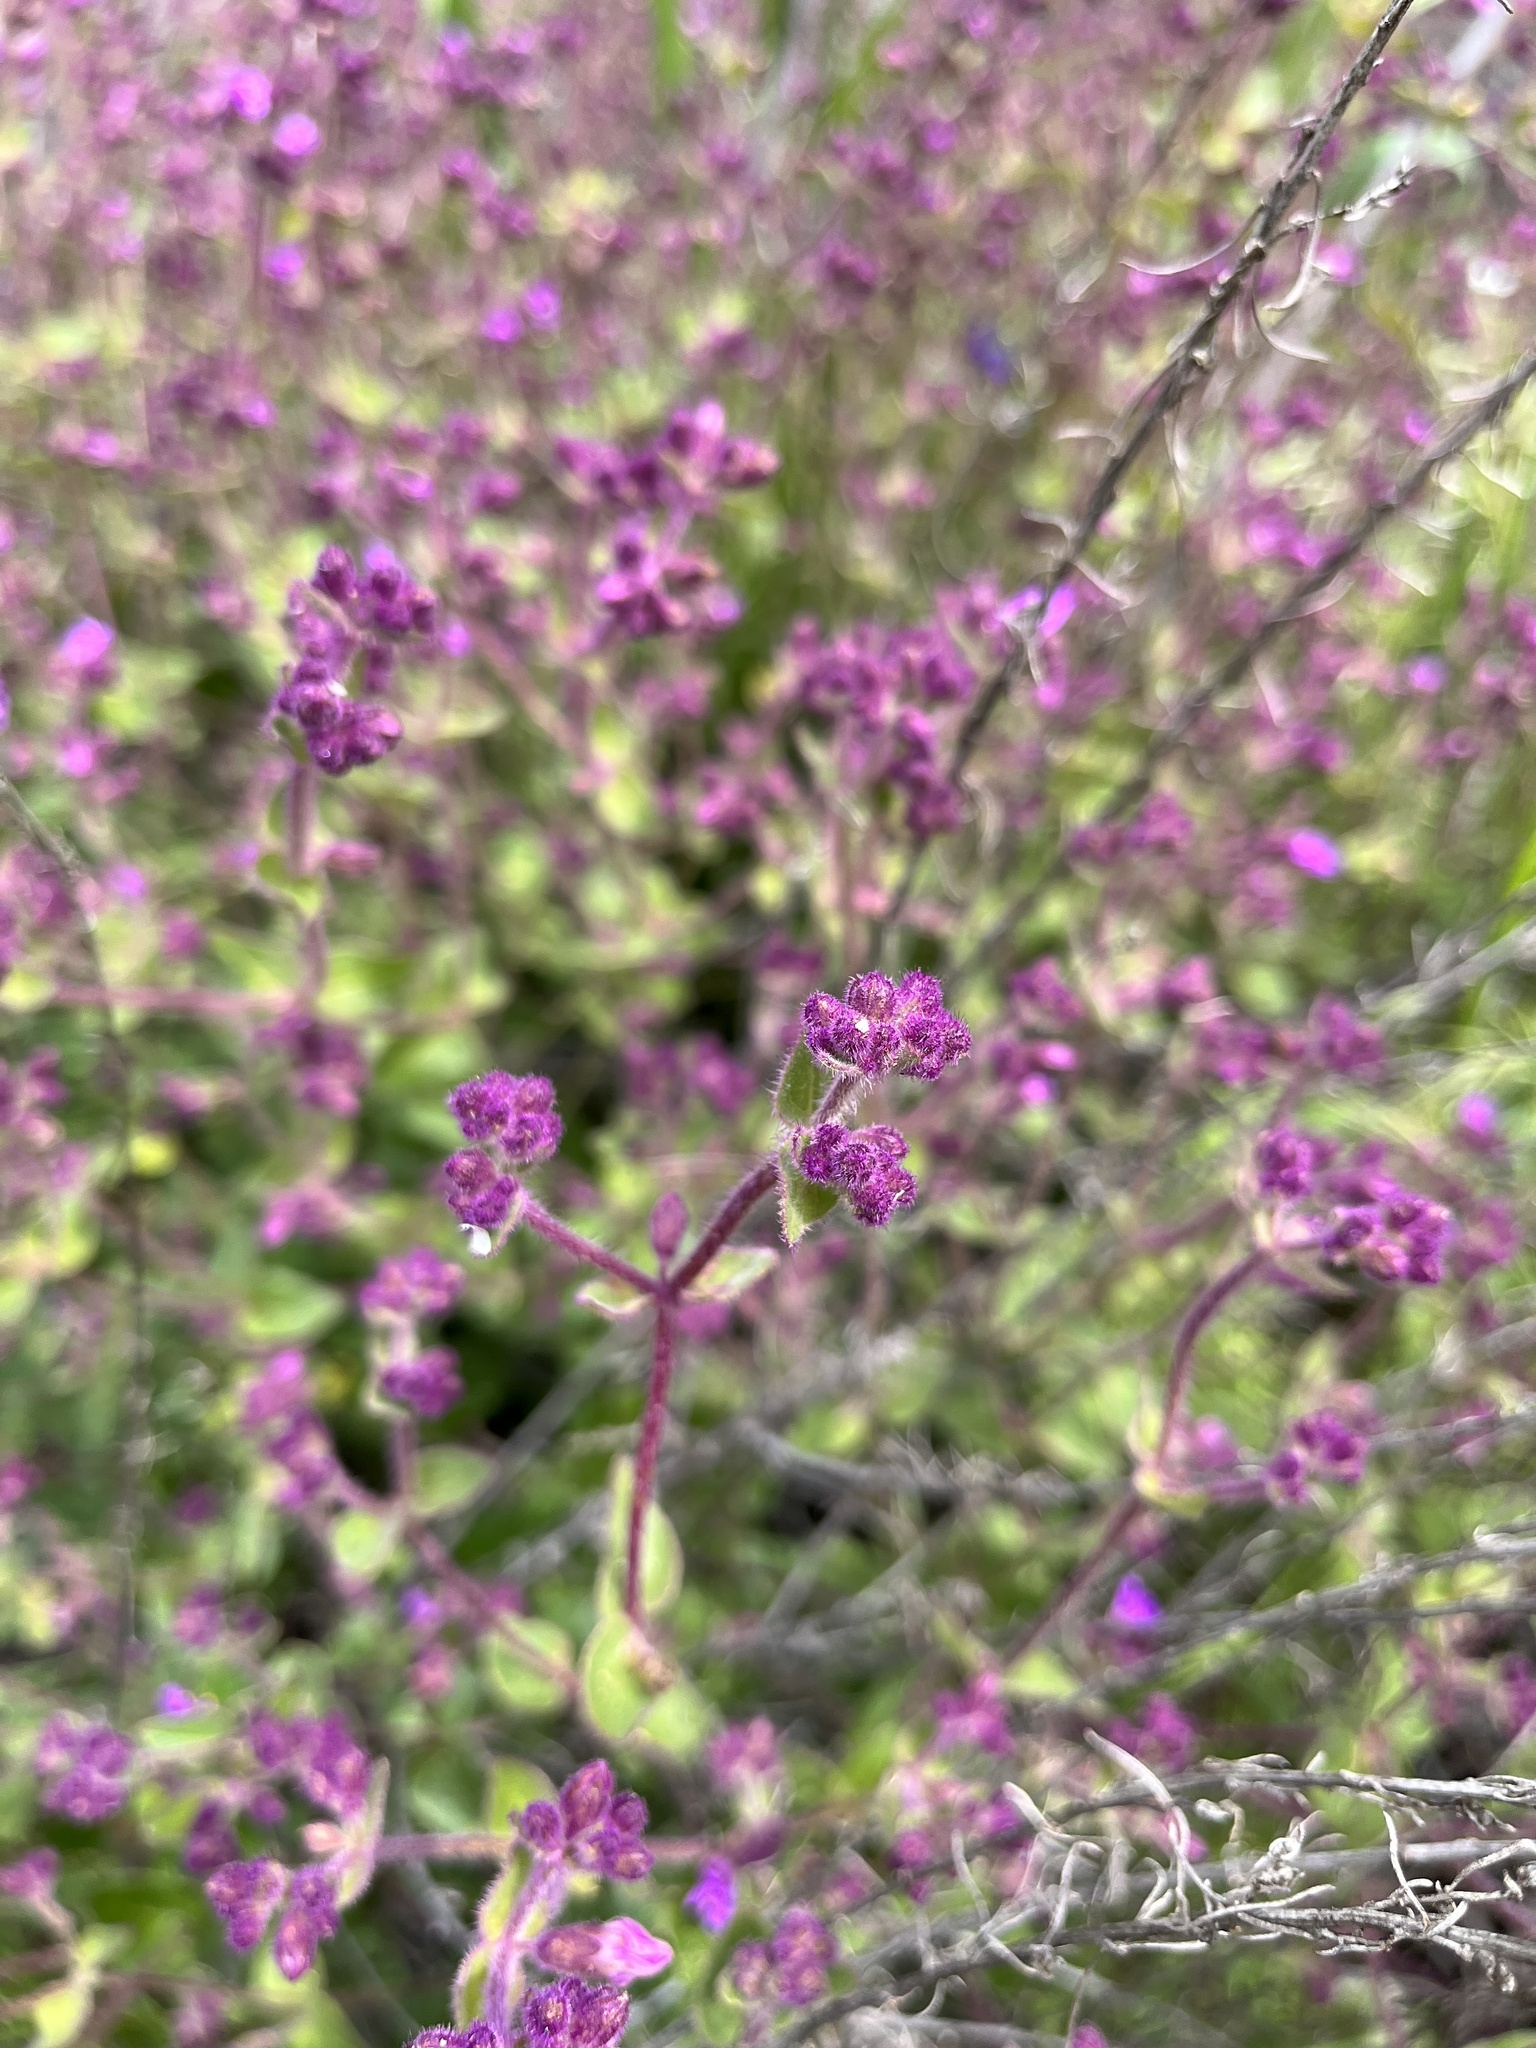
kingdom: Plantae
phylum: Tracheophyta
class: Magnoliopsida
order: Caryophyllales
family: Nyctaginaceae
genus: Mirabilis
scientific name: Mirabilis laevis
